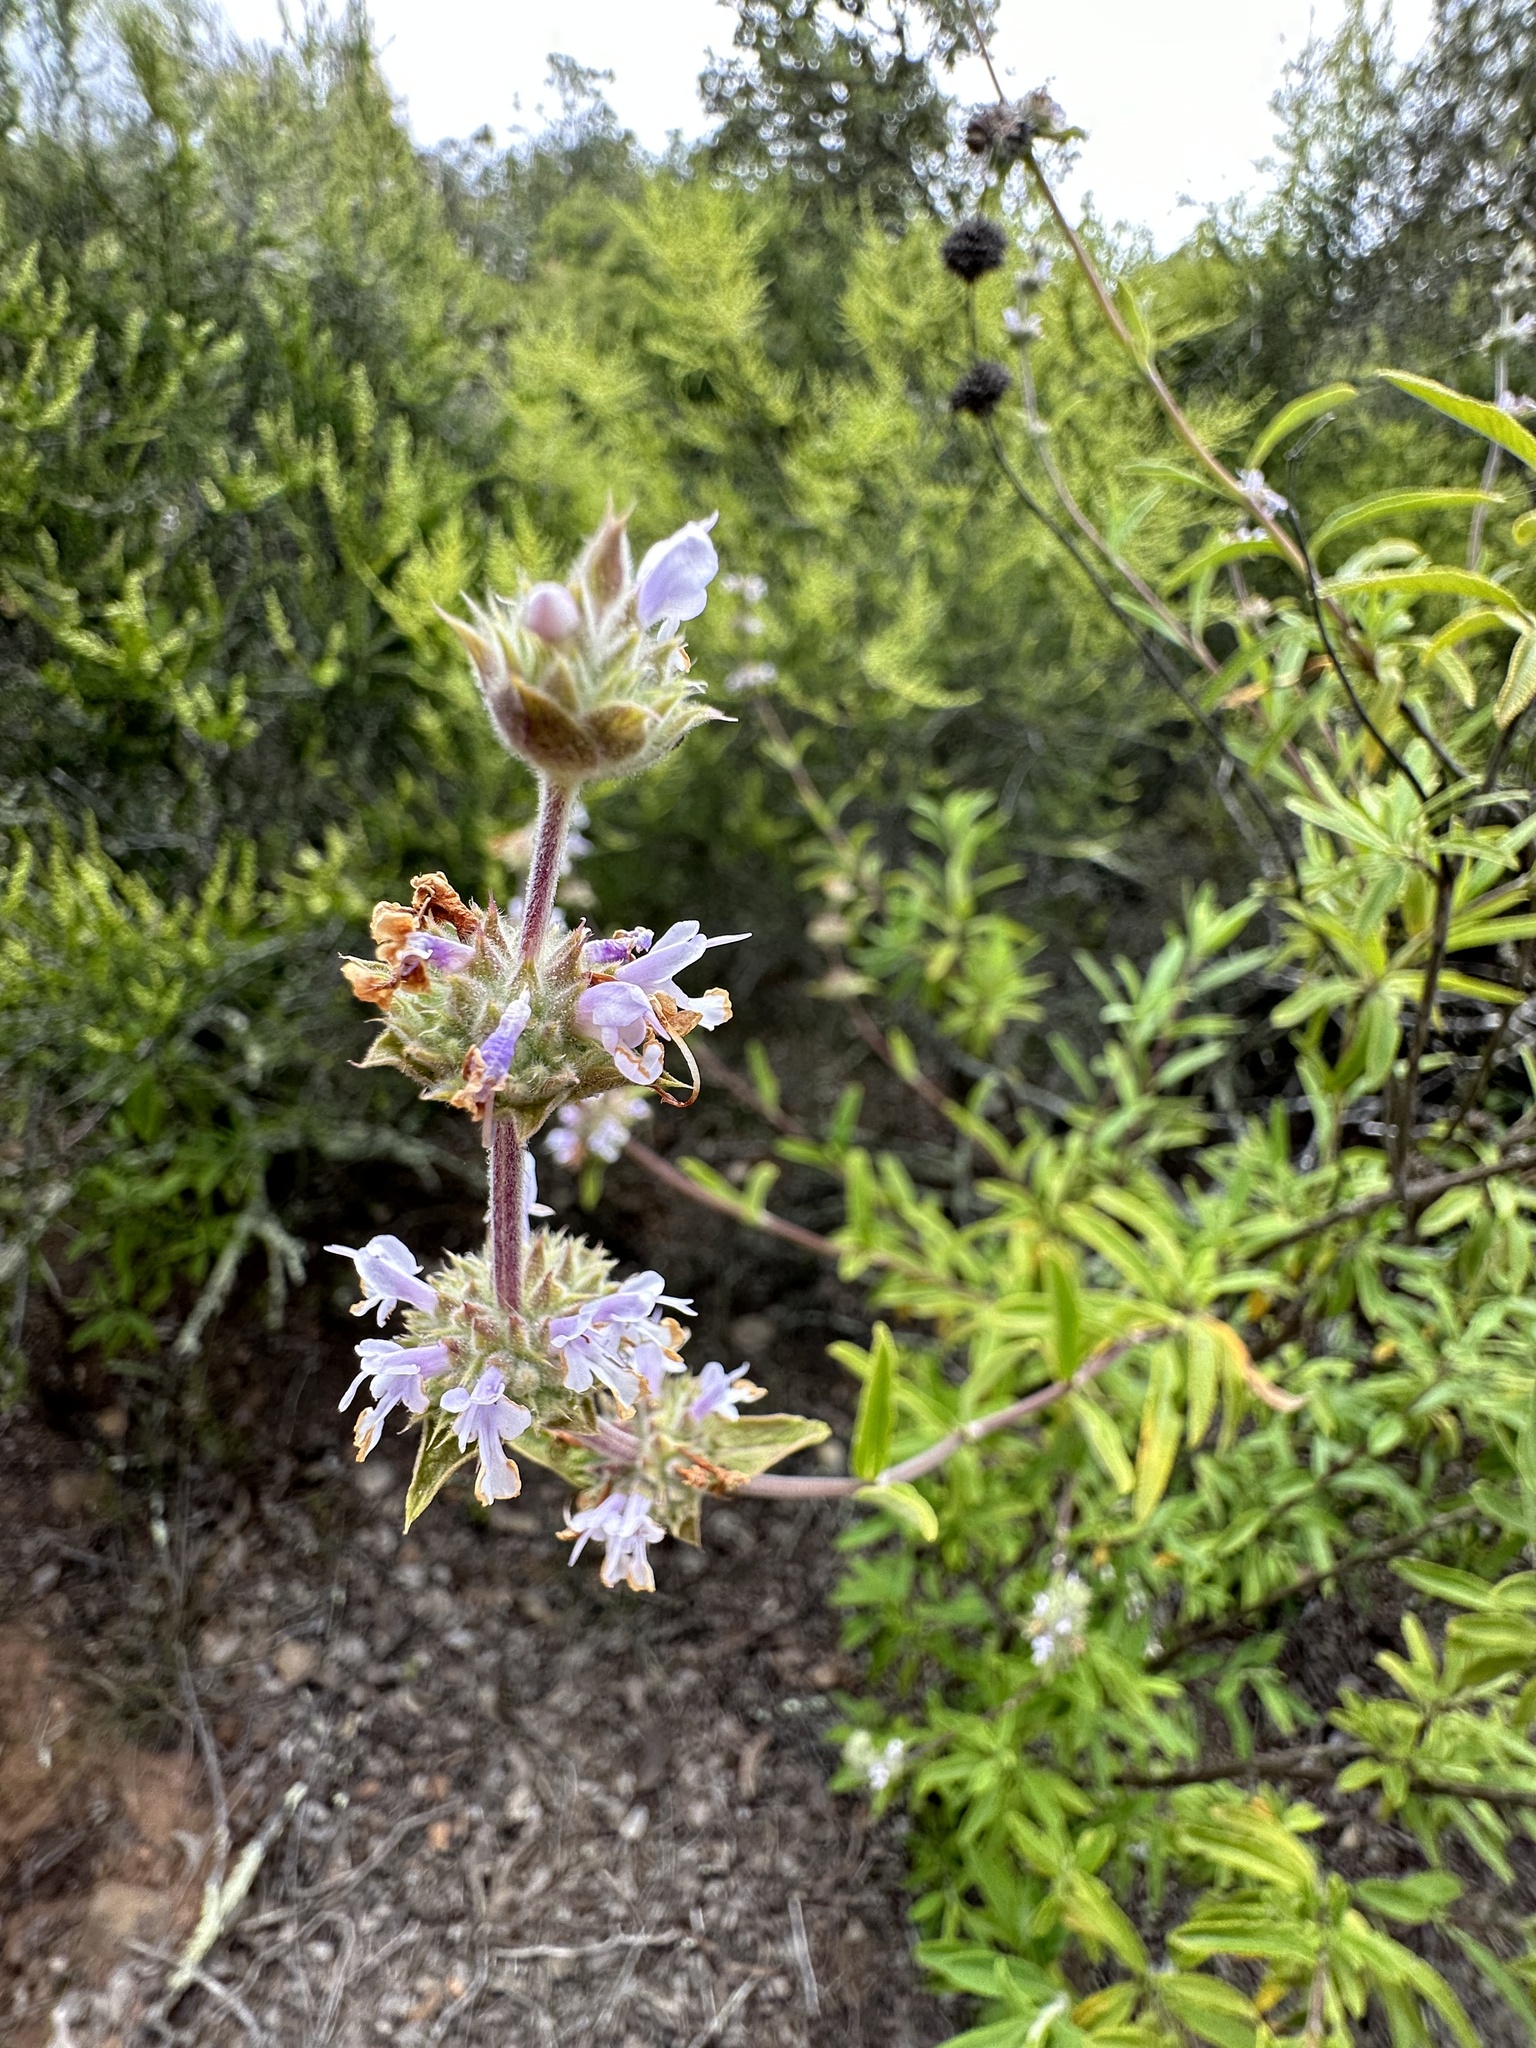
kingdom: Plantae
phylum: Tracheophyta
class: Magnoliopsida
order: Lamiales
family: Lamiaceae
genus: Salvia
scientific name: Salvia mellifera
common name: Black sage
